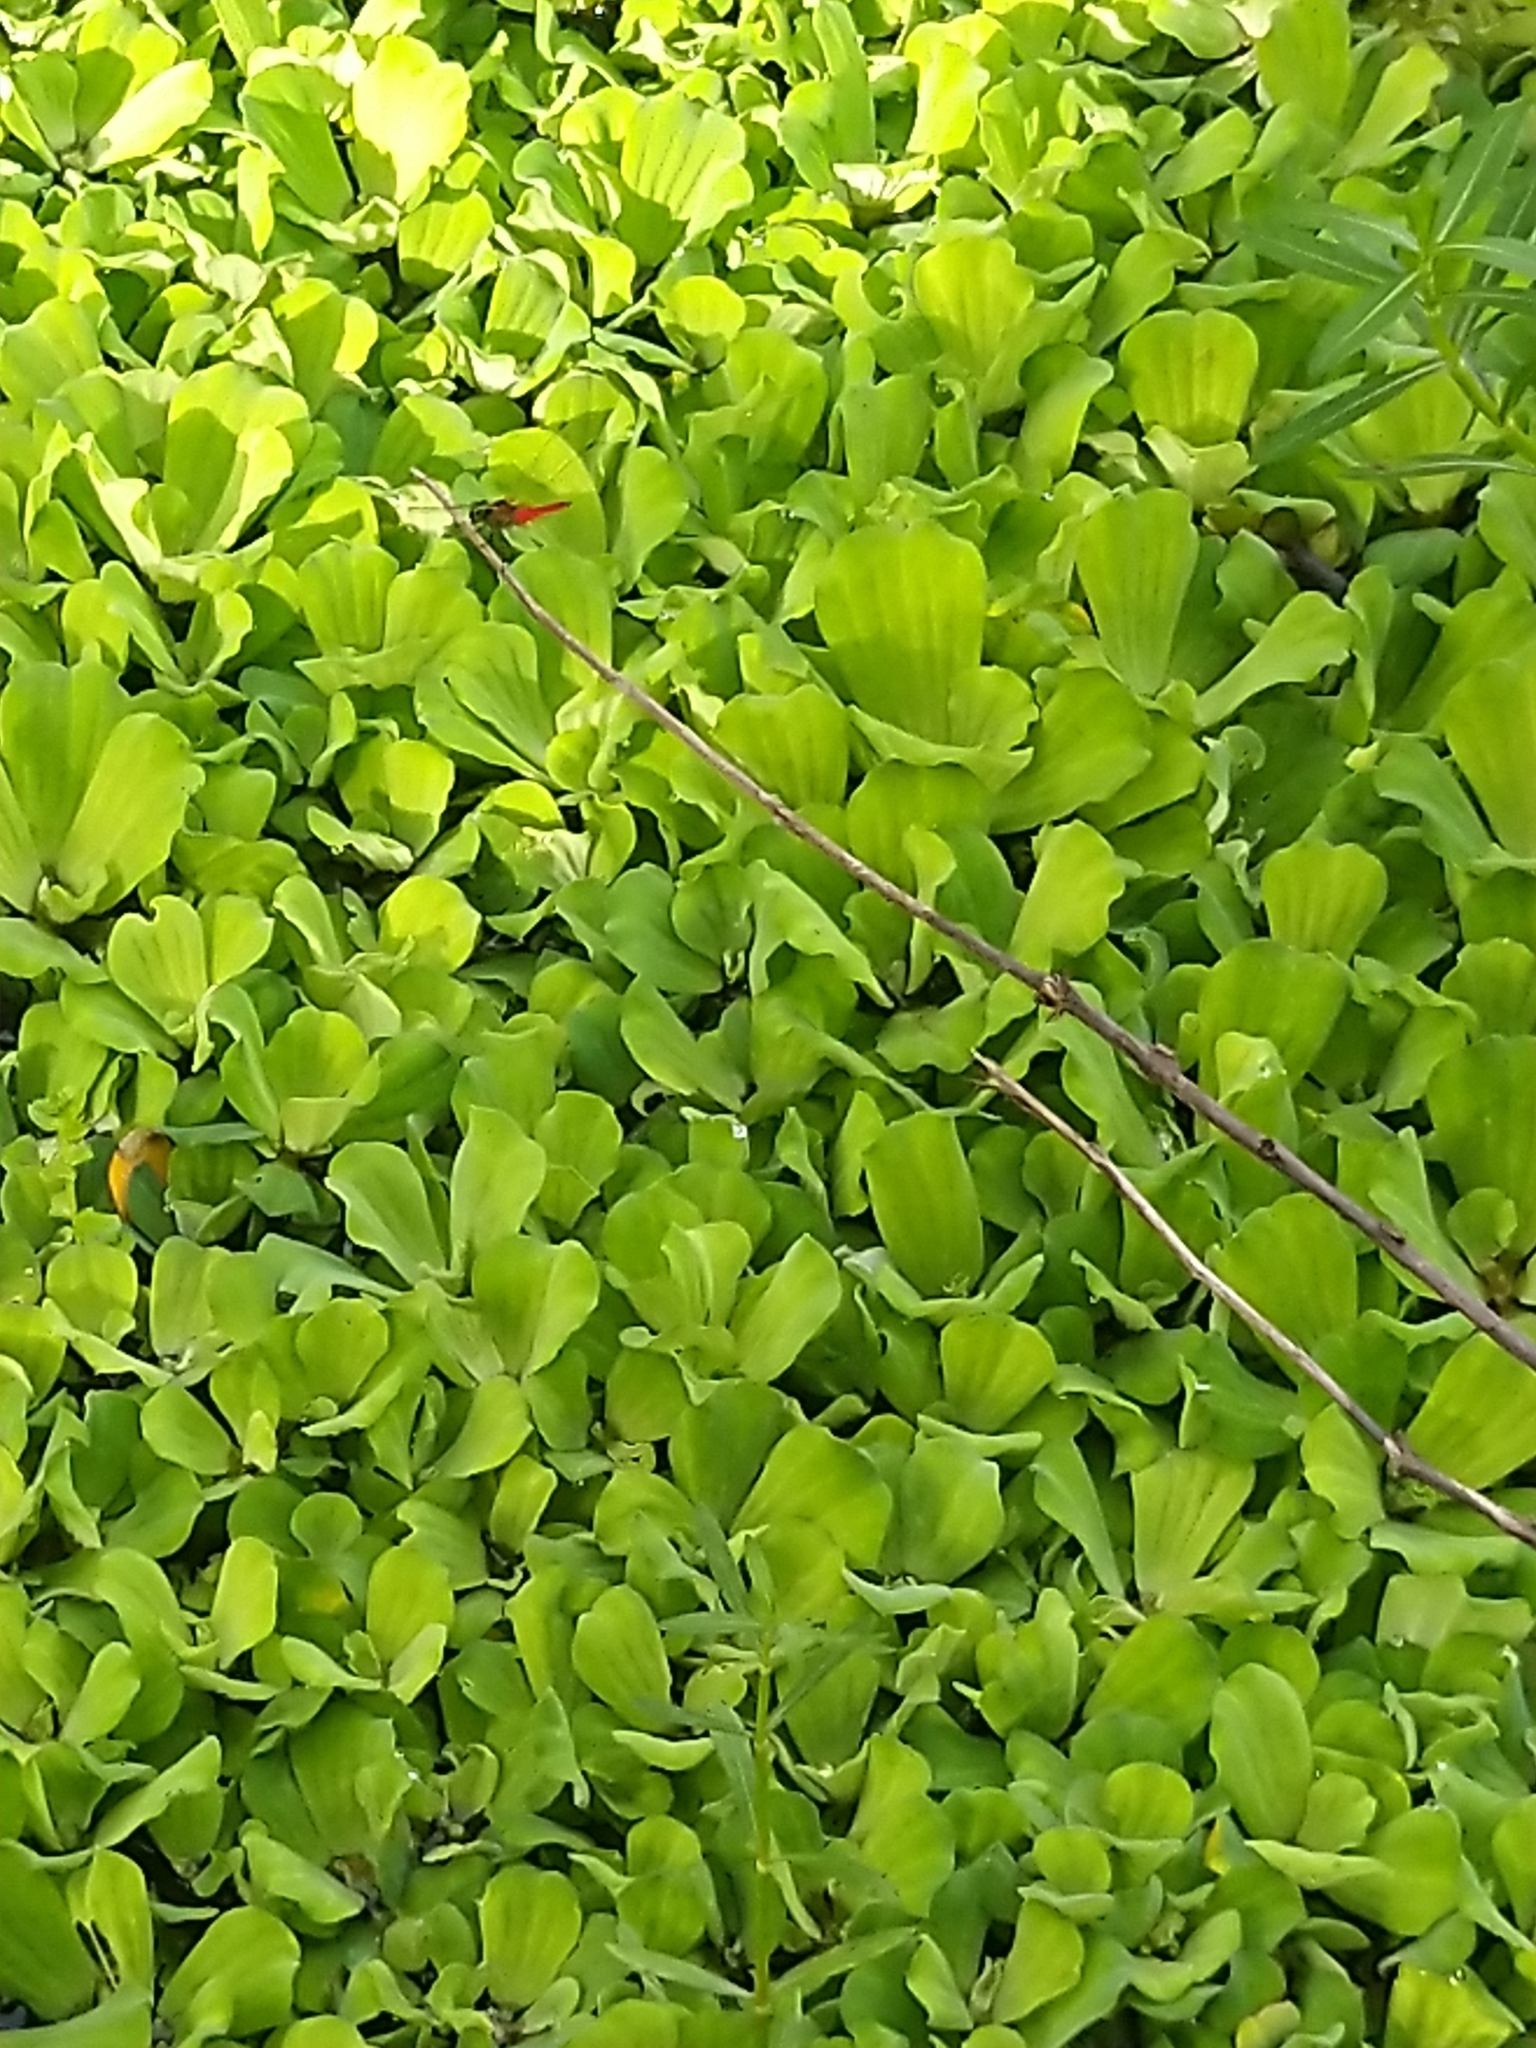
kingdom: Animalia
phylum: Arthropoda
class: Insecta
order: Odonata
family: Libellulidae
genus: Aethriamanta
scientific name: Aethriamanta brevipennis
